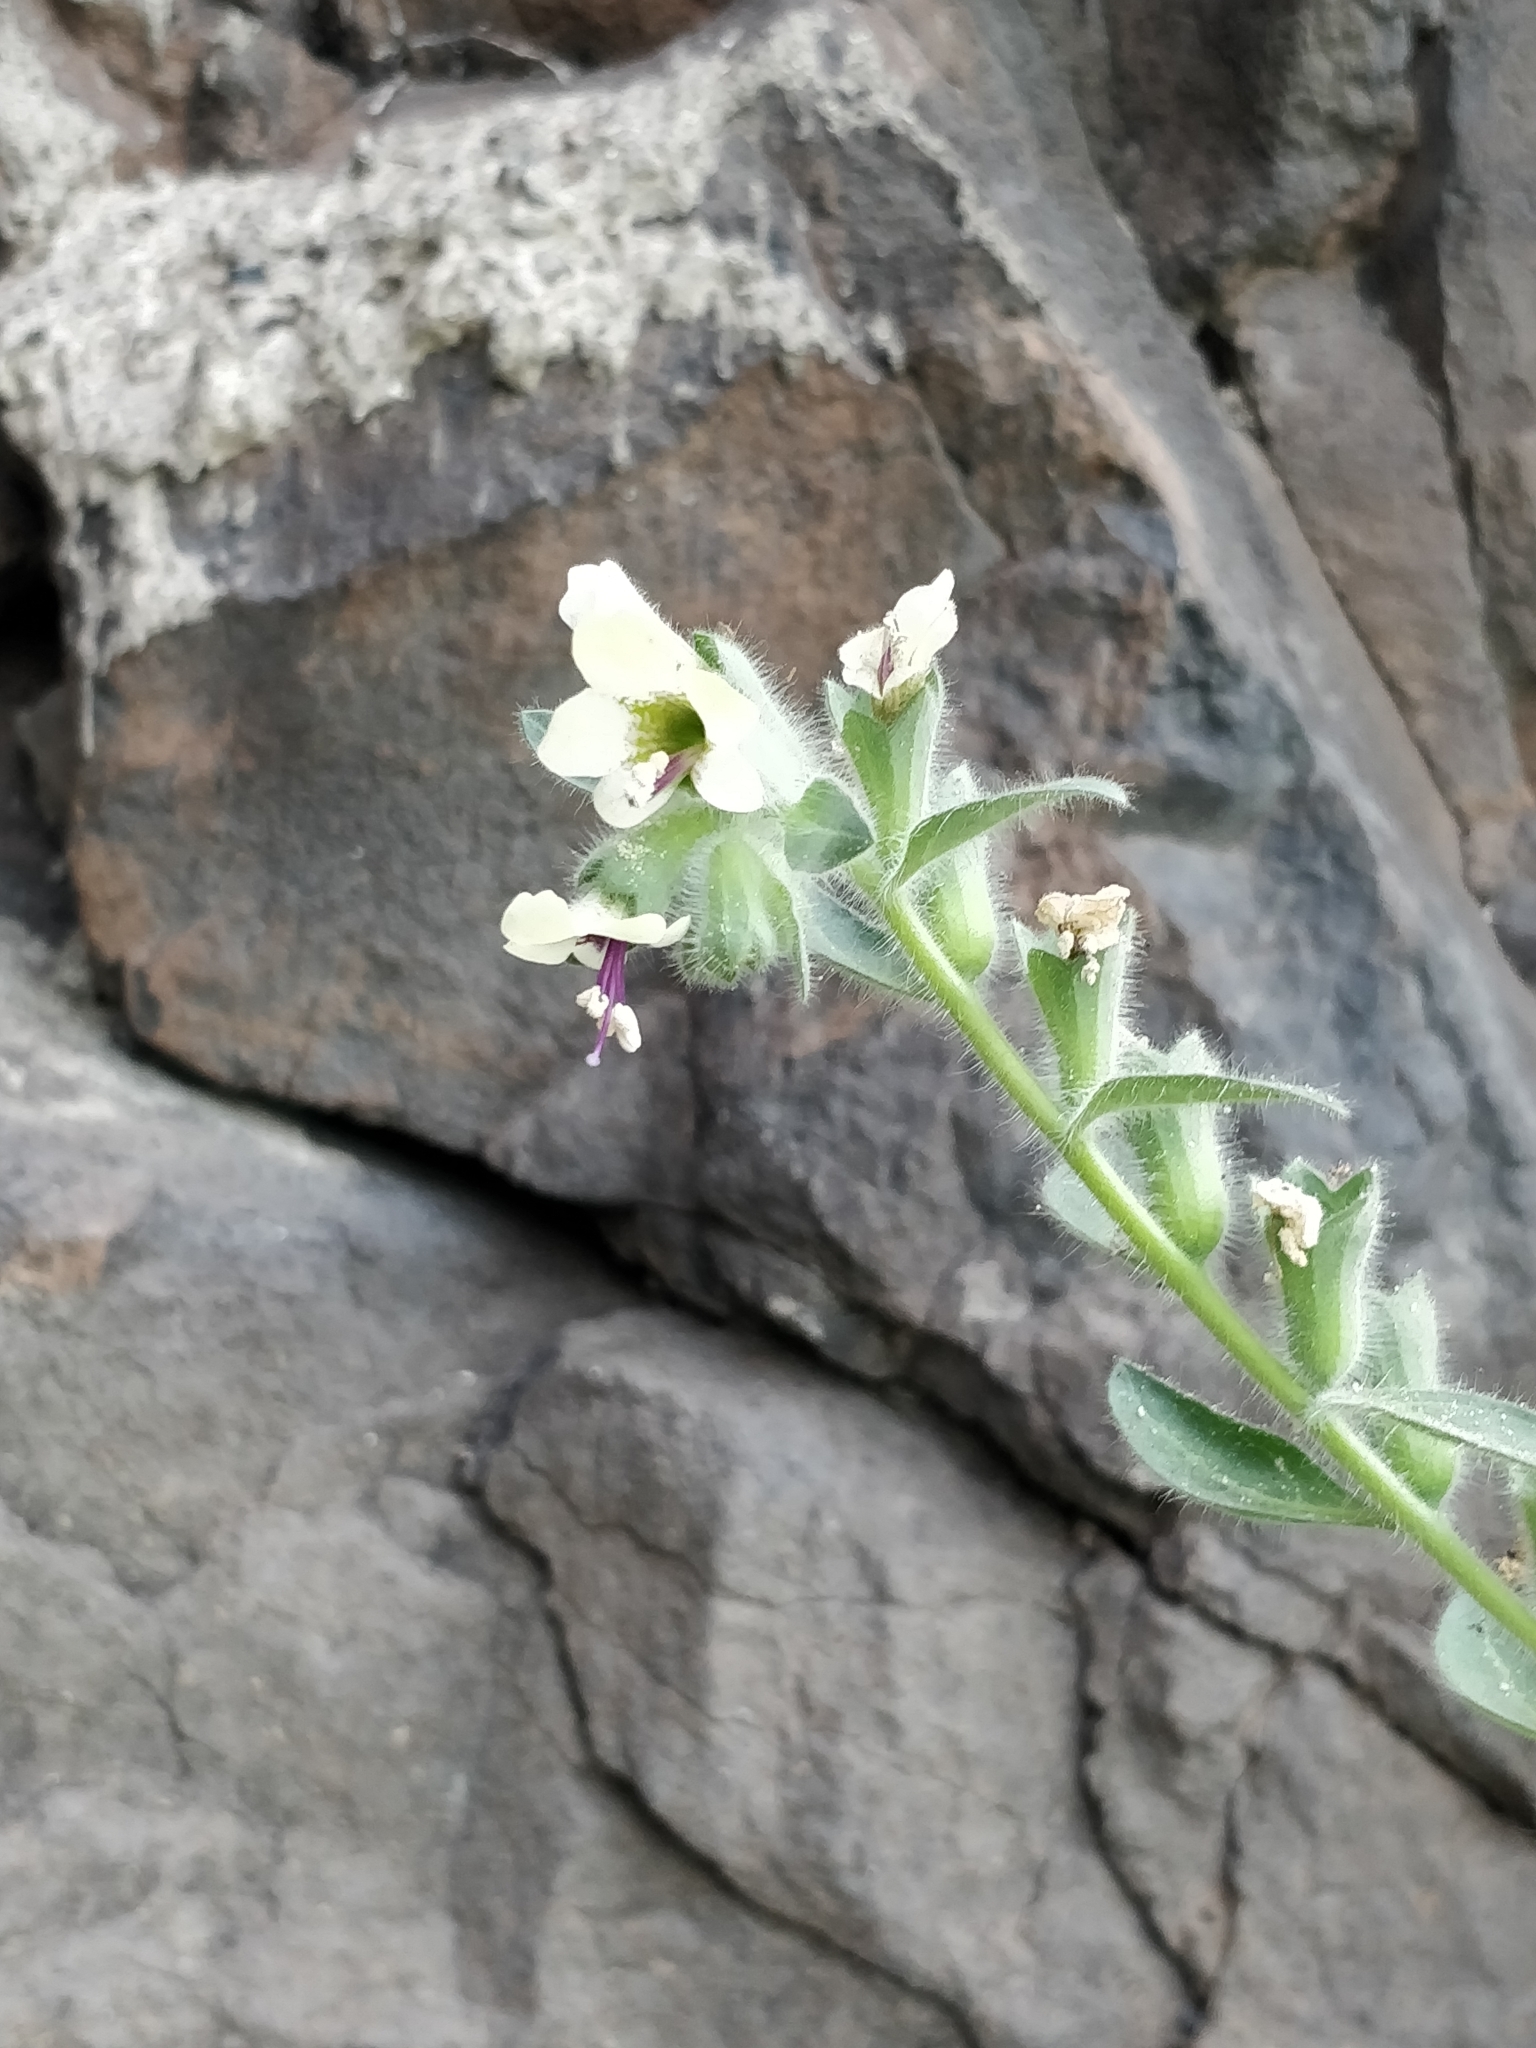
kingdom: Plantae
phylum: Tracheophyta
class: Magnoliopsida
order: Solanales
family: Solanaceae
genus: Hyoscyamus
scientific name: Hyoscyamus albus
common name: White henbane
